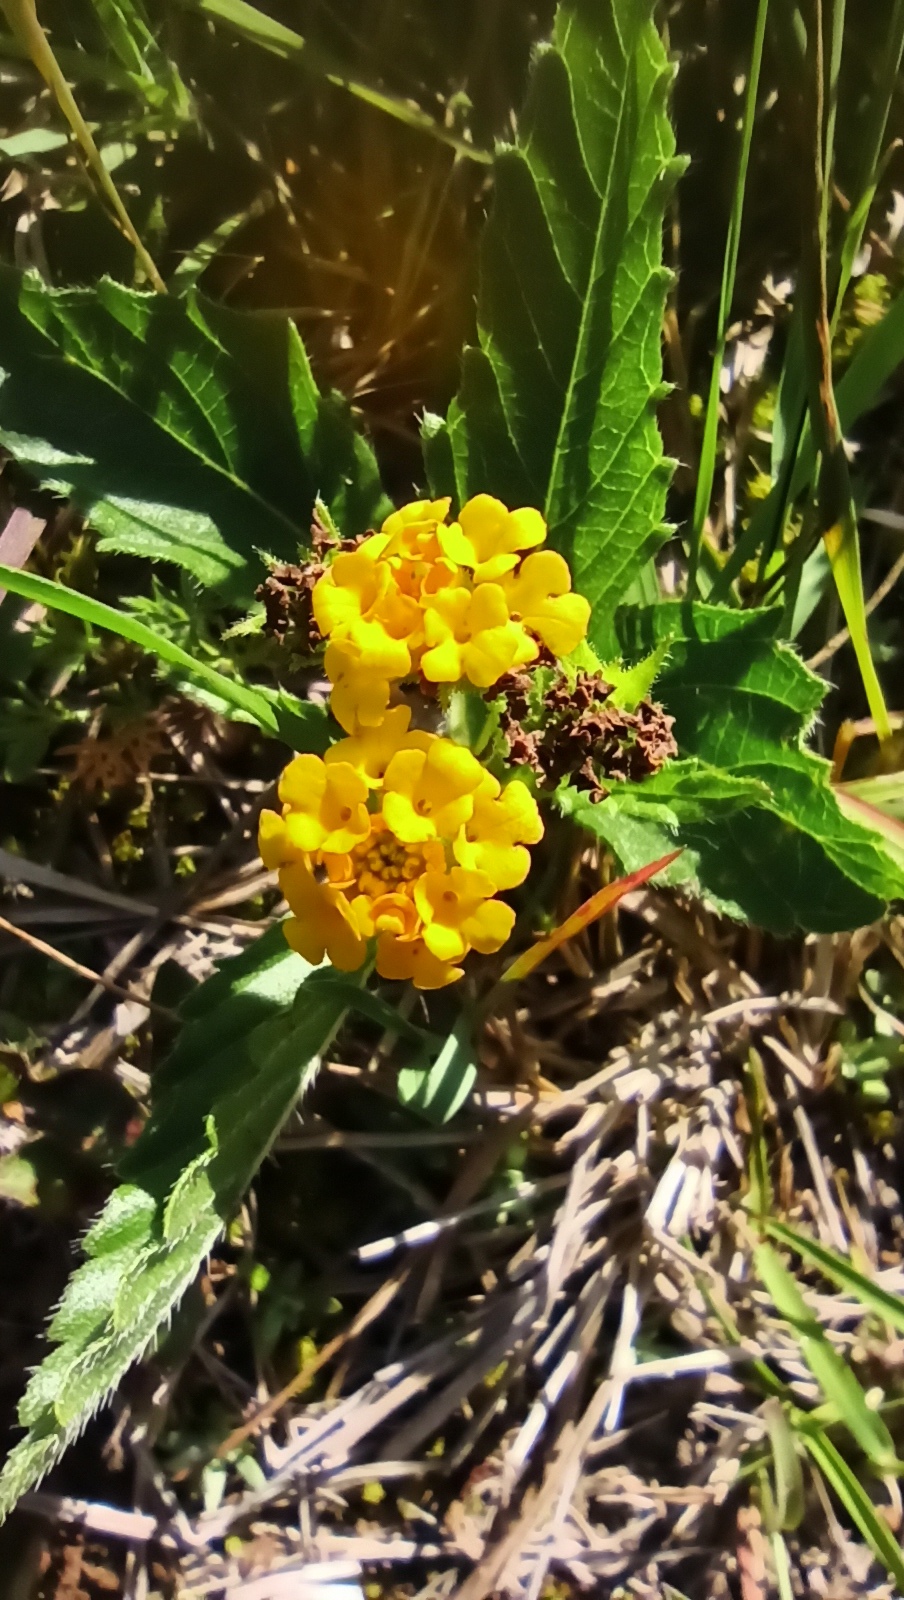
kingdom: Plantae
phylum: Tracheophyta
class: Magnoliopsida
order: Lamiales
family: Verbenaceae
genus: Lippia
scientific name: Lippia coarctata
